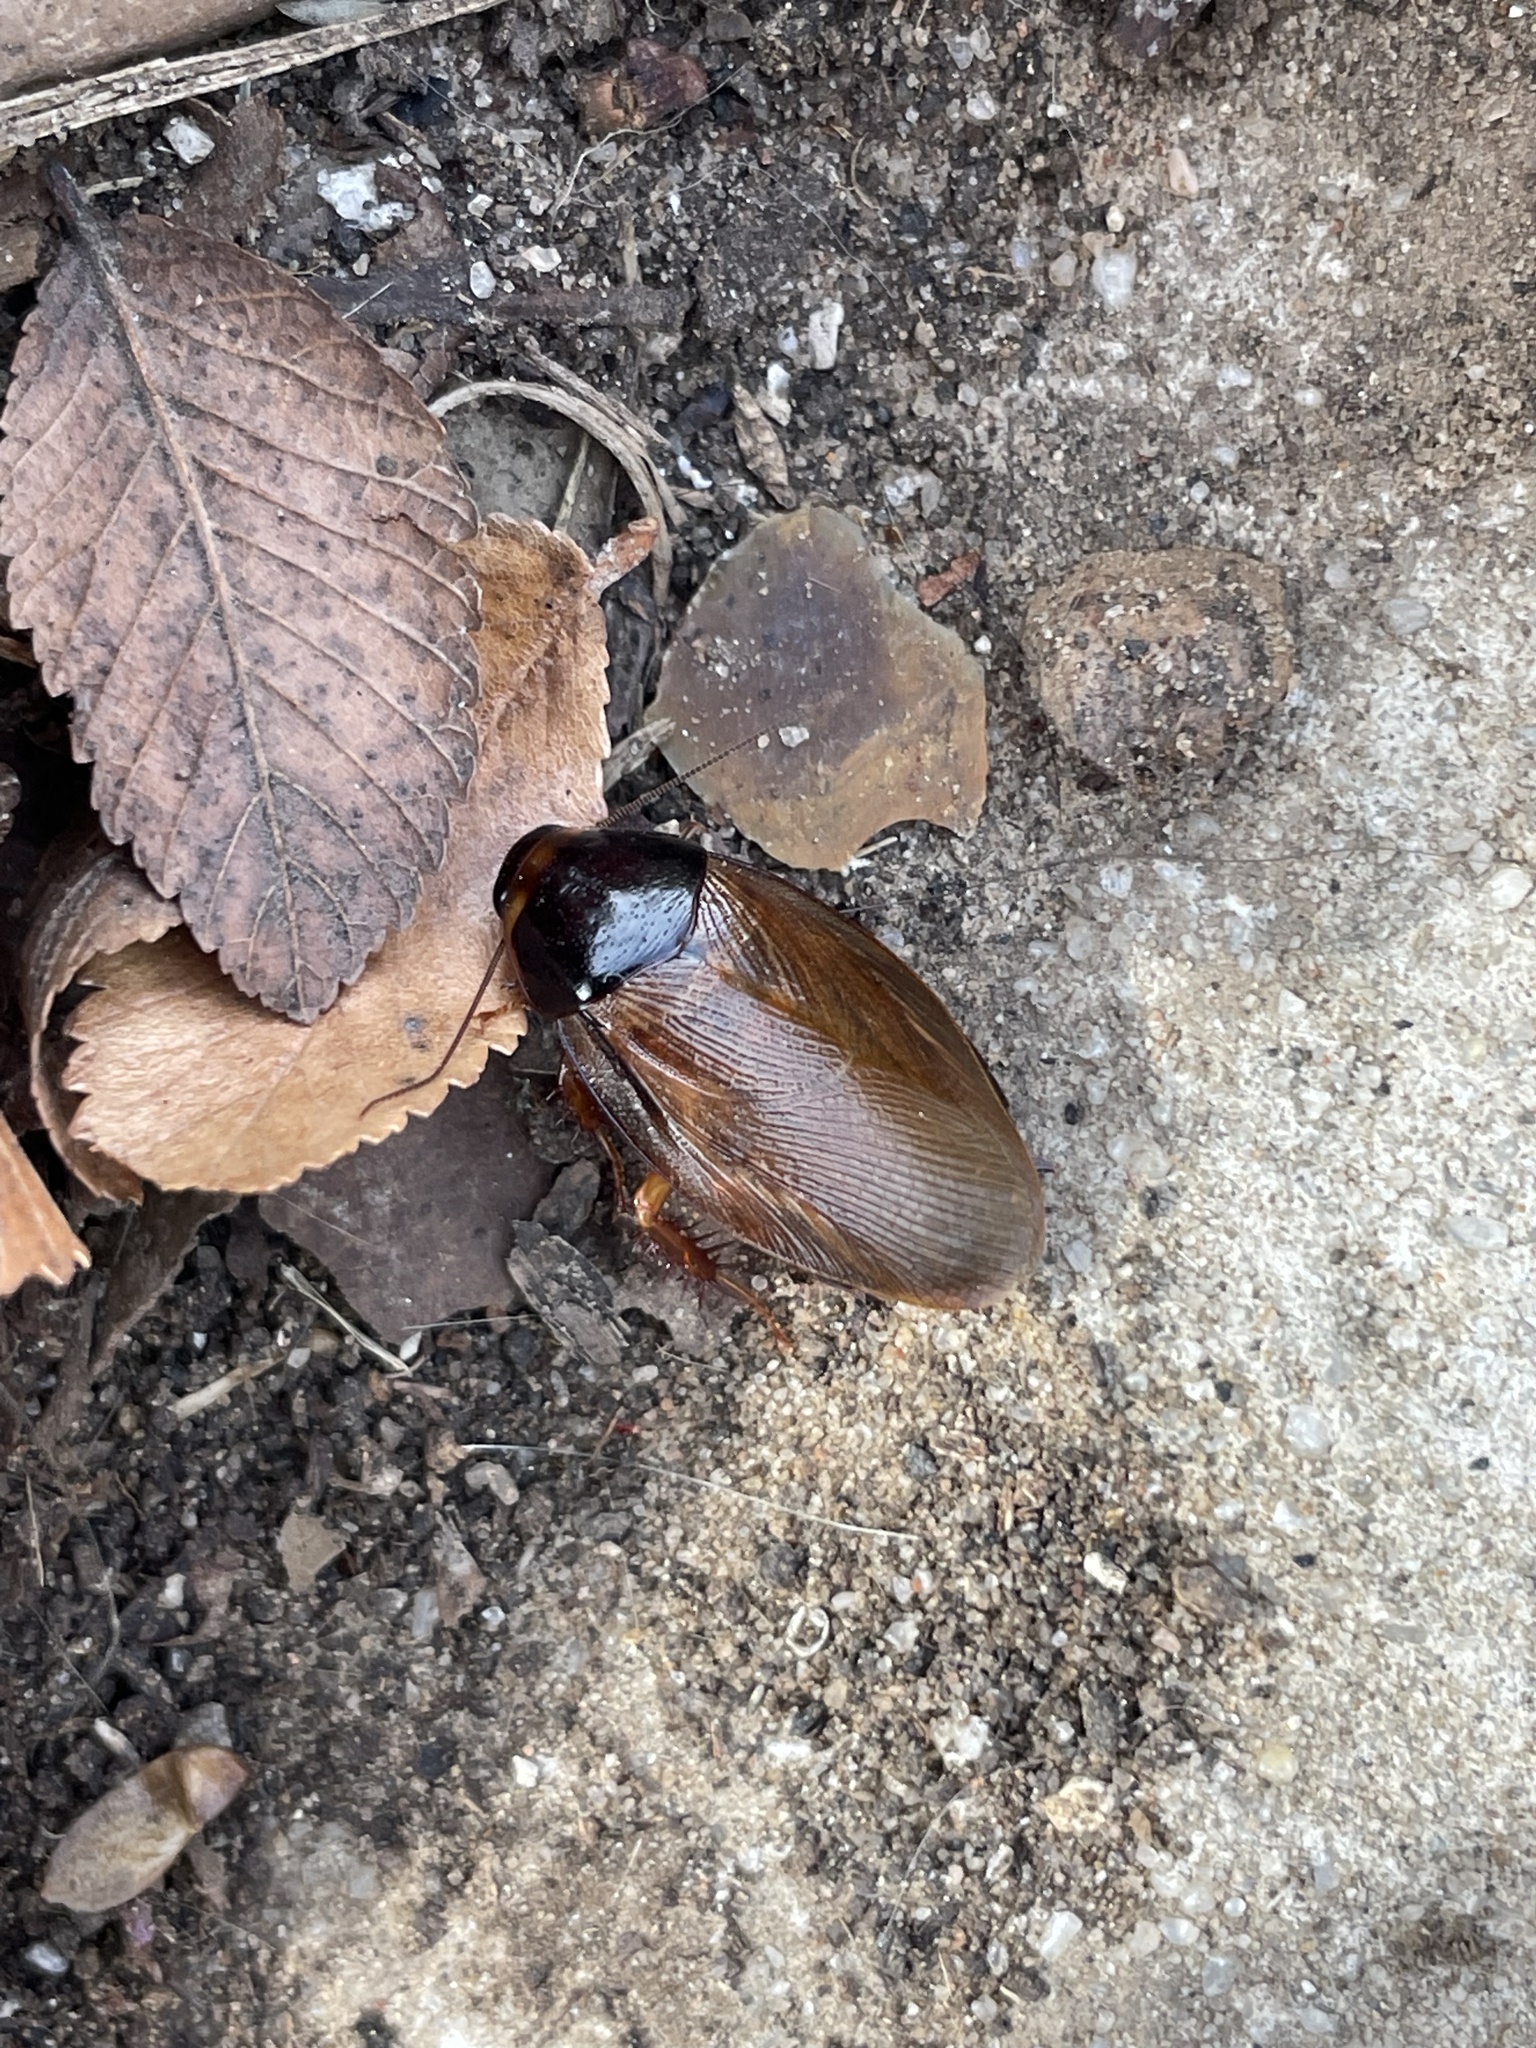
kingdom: Animalia
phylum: Arthropoda
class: Insecta
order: Blattodea
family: Blaberidae
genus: Pycnoscelus
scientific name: Pycnoscelus surinamensis
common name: Surinam cockroach
